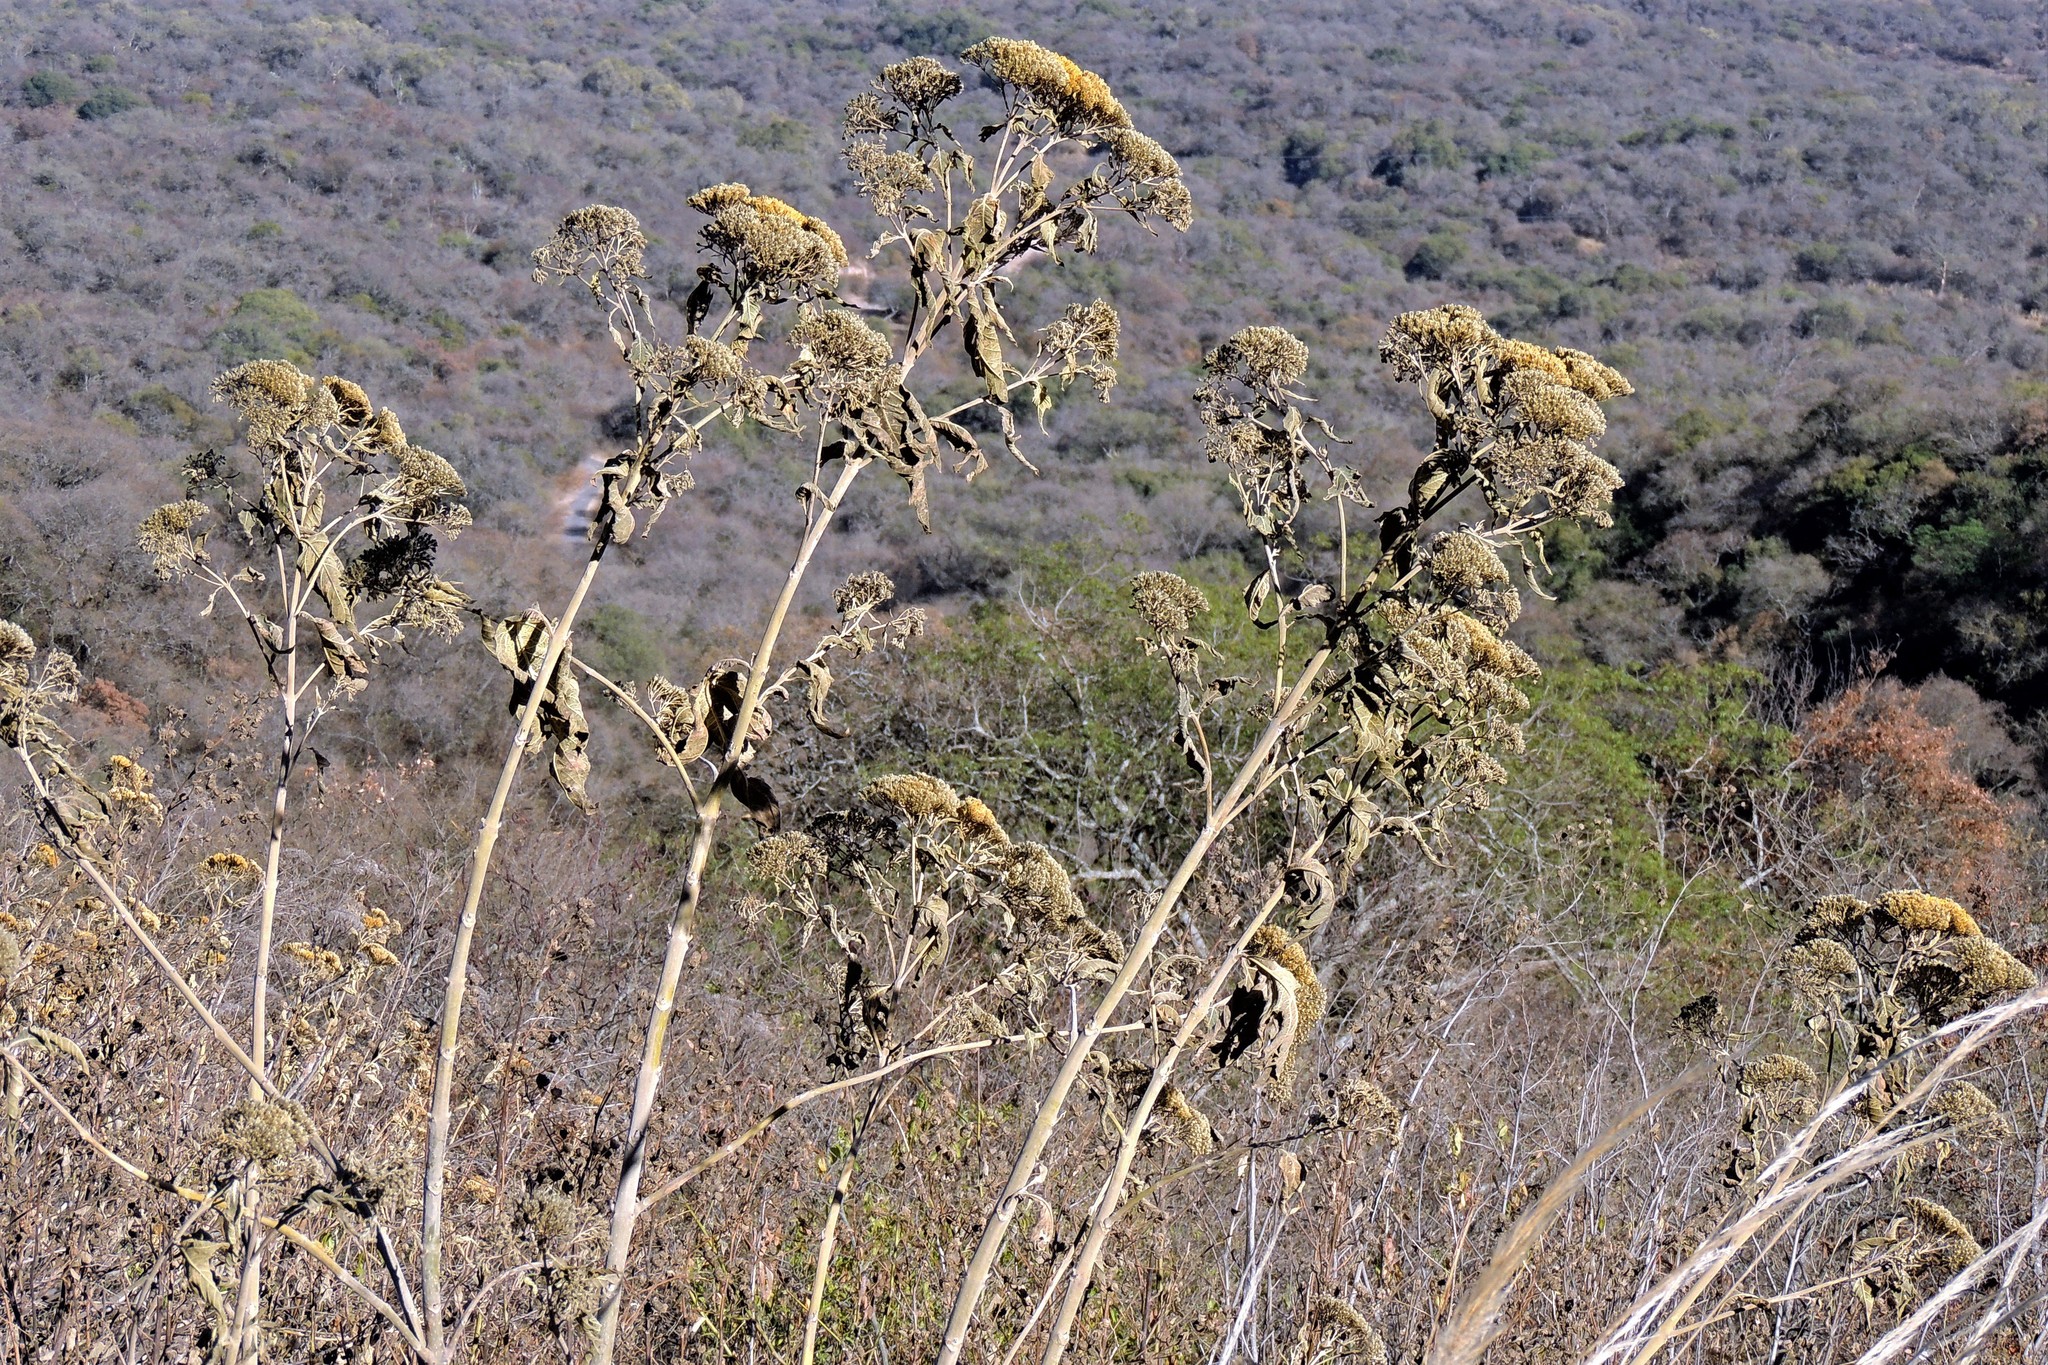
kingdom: Plantae
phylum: Tracheophyta
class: Magnoliopsida
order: Asterales
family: Asteraceae
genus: Verbesina
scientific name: Verbesina suncho
